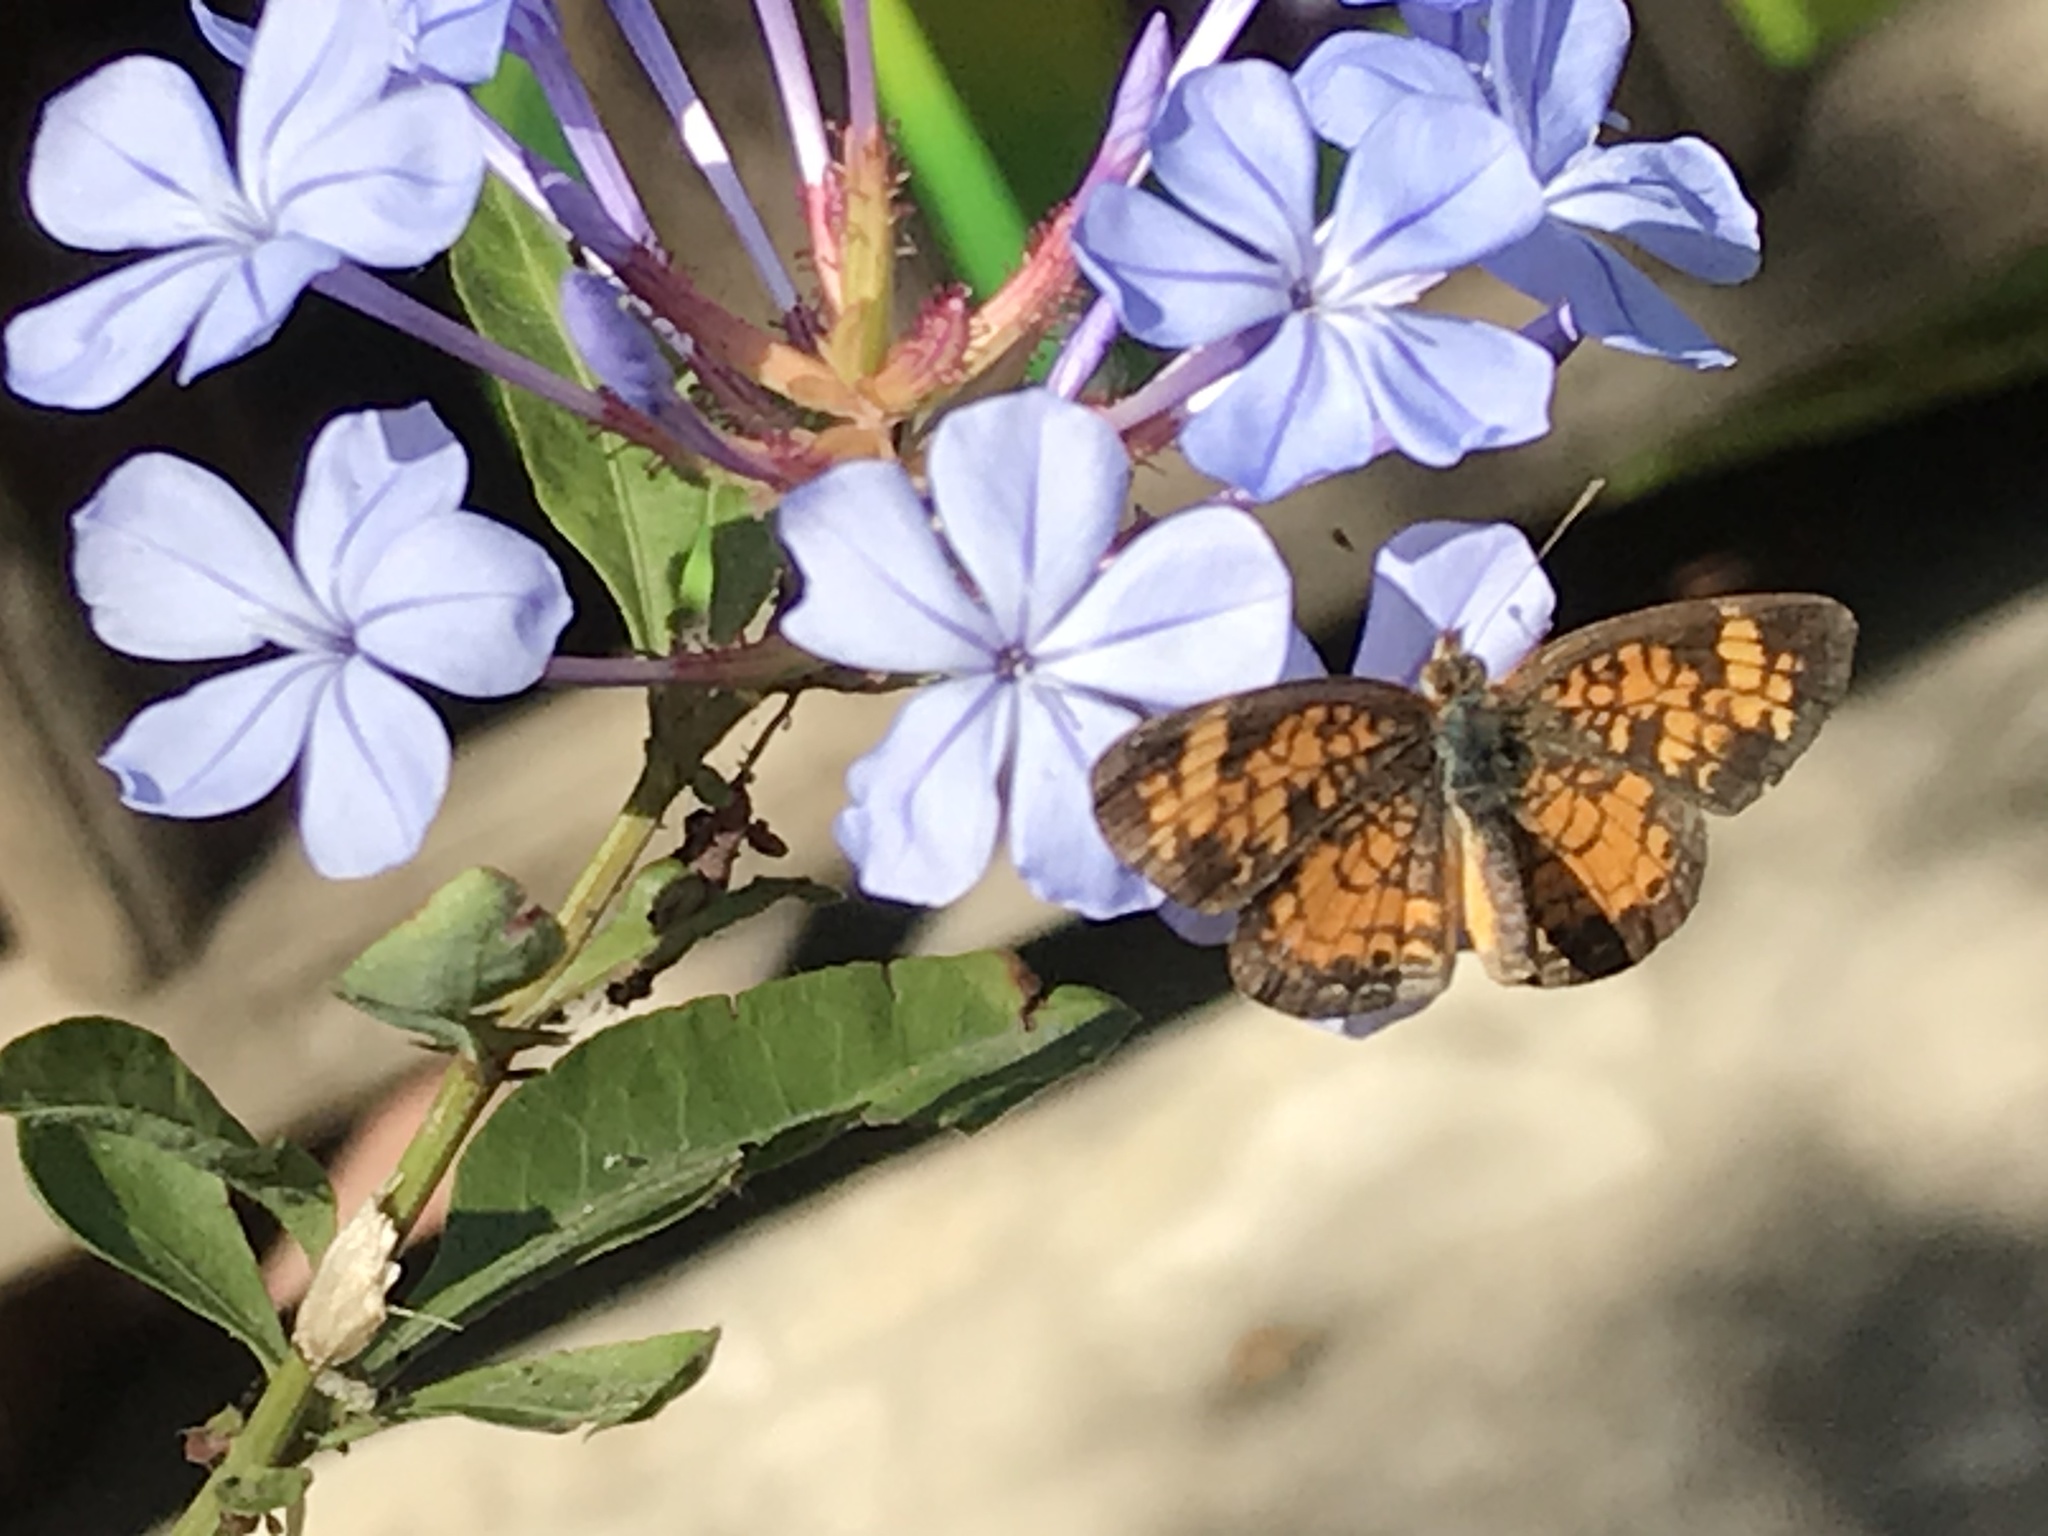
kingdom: Animalia
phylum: Arthropoda
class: Insecta
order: Lepidoptera
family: Nymphalidae
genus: Phyciodes
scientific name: Phyciodes tharos
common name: Pearl crescent
